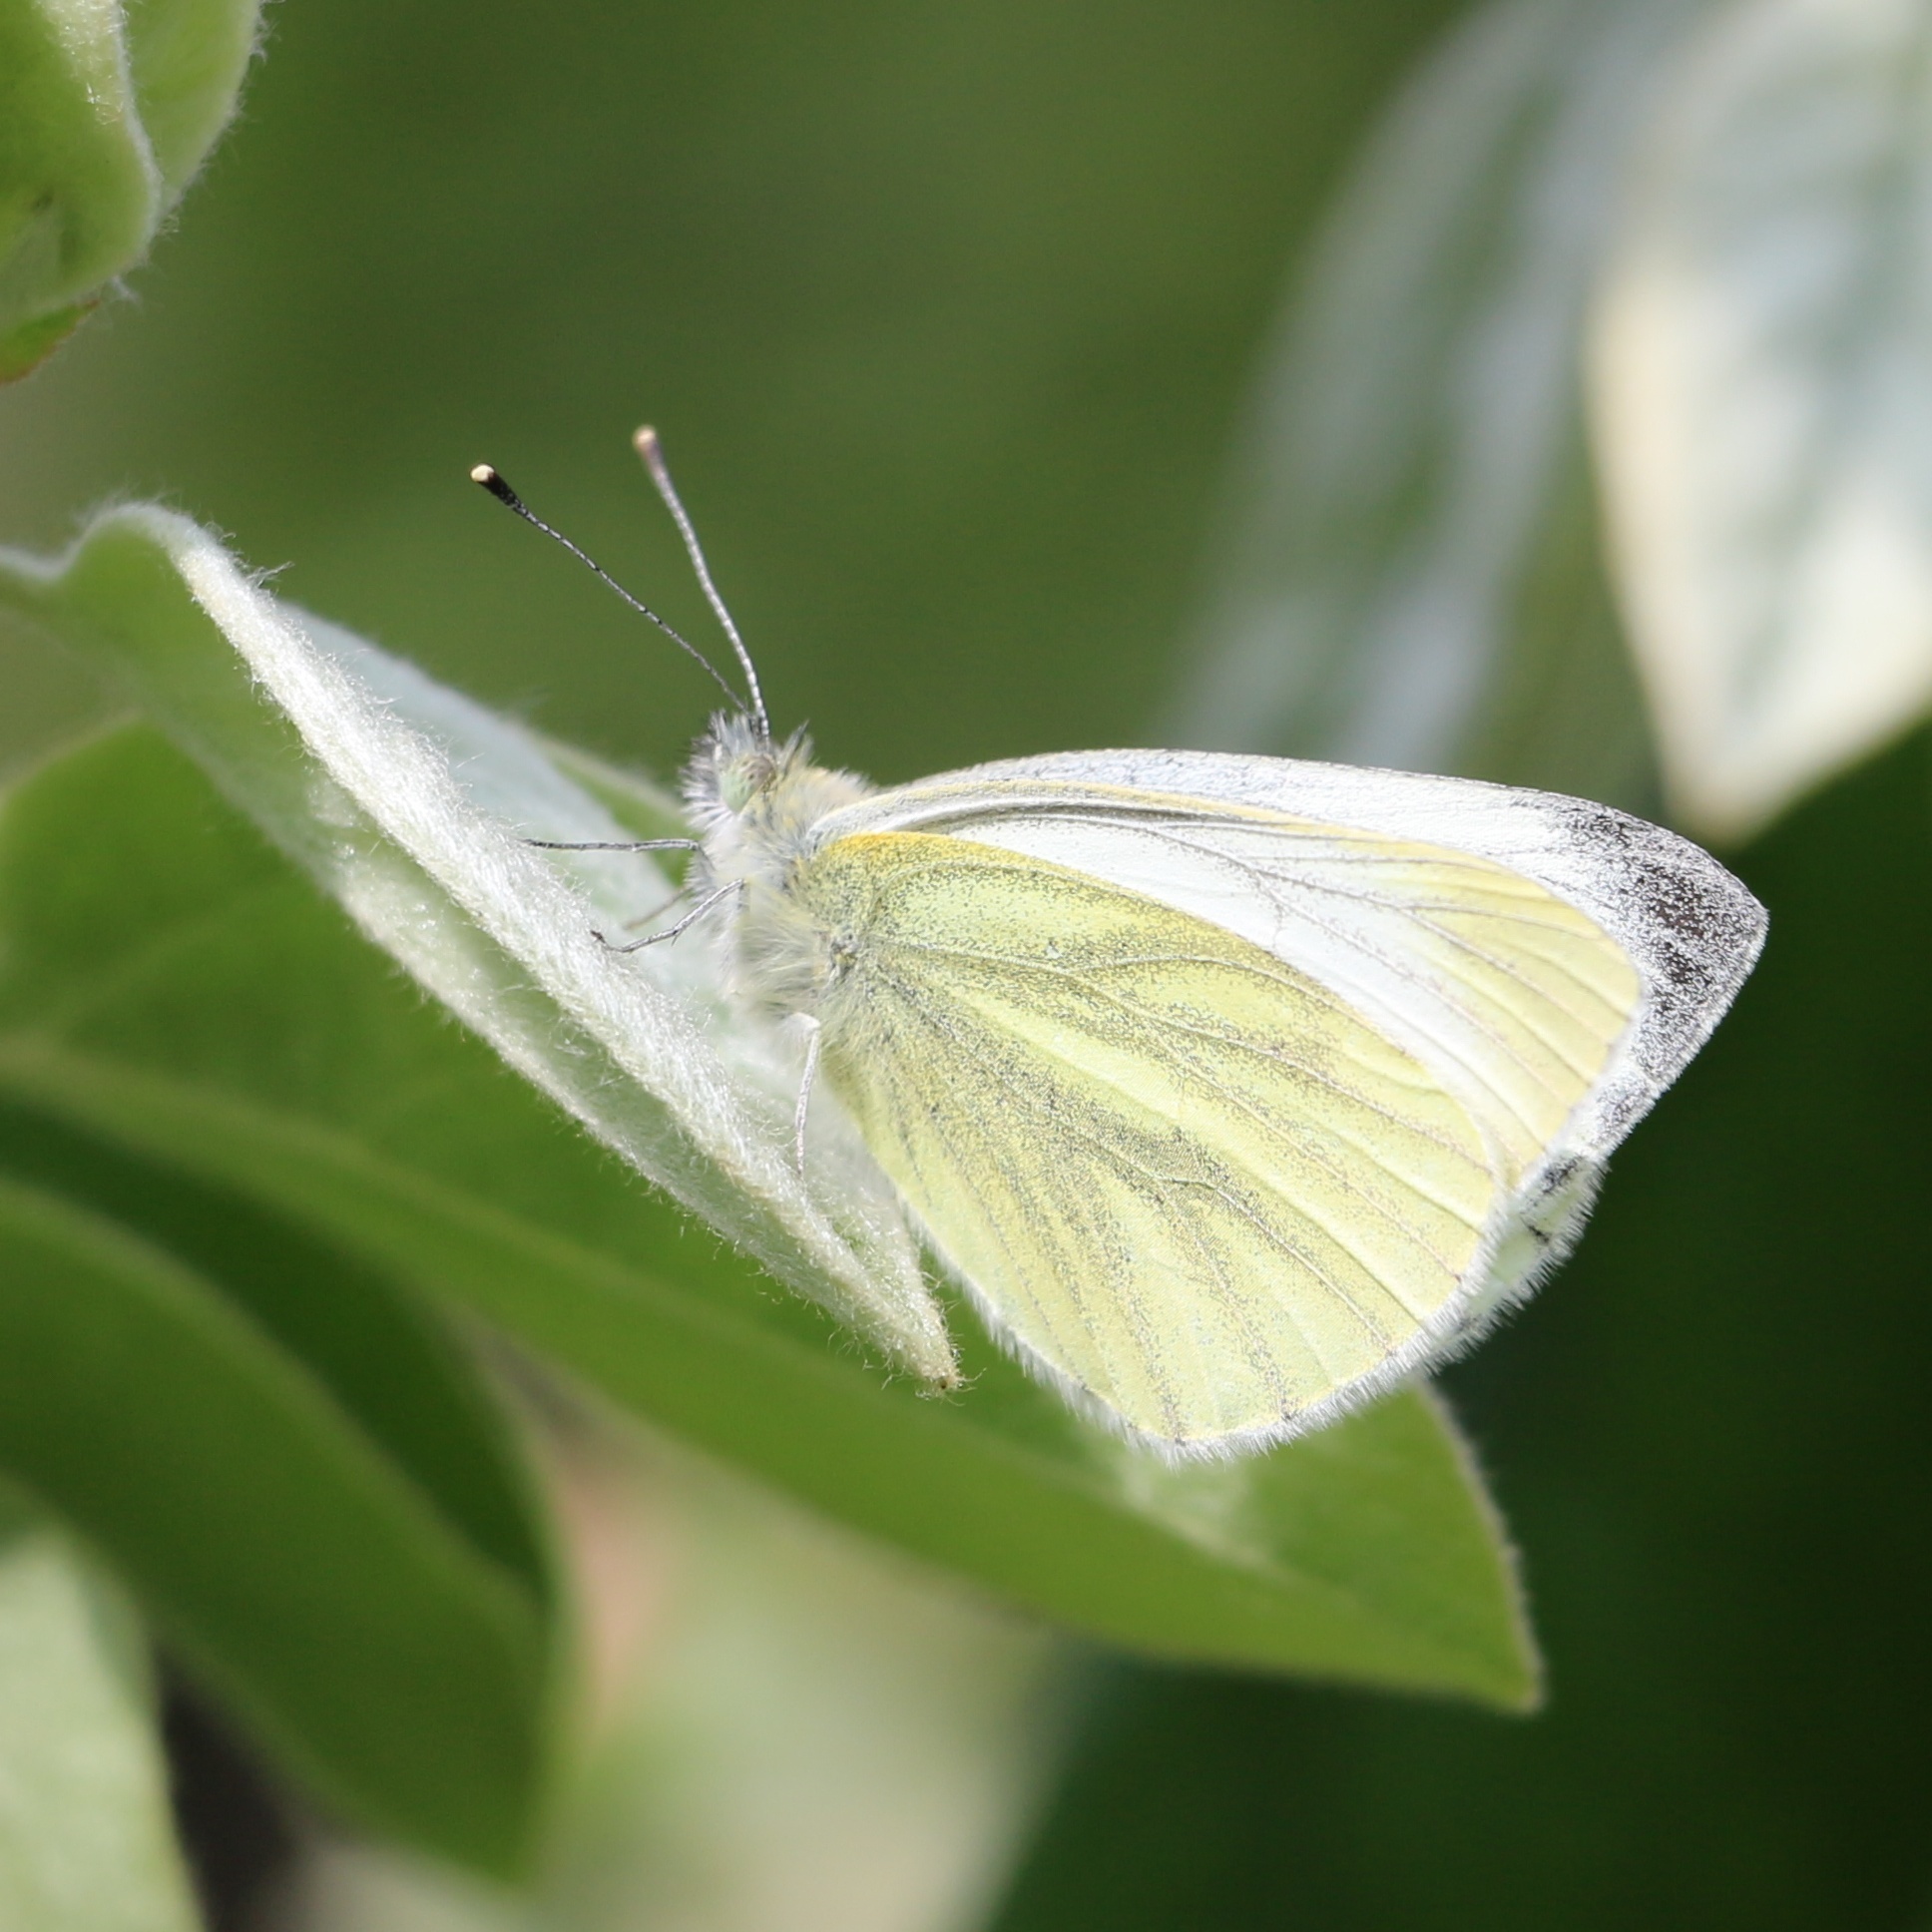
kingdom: Animalia
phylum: Arthropoda
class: Insecta
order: Lepidoptera
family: Pieridae
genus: Pieris
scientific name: Pieris napi
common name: Green-veined white
